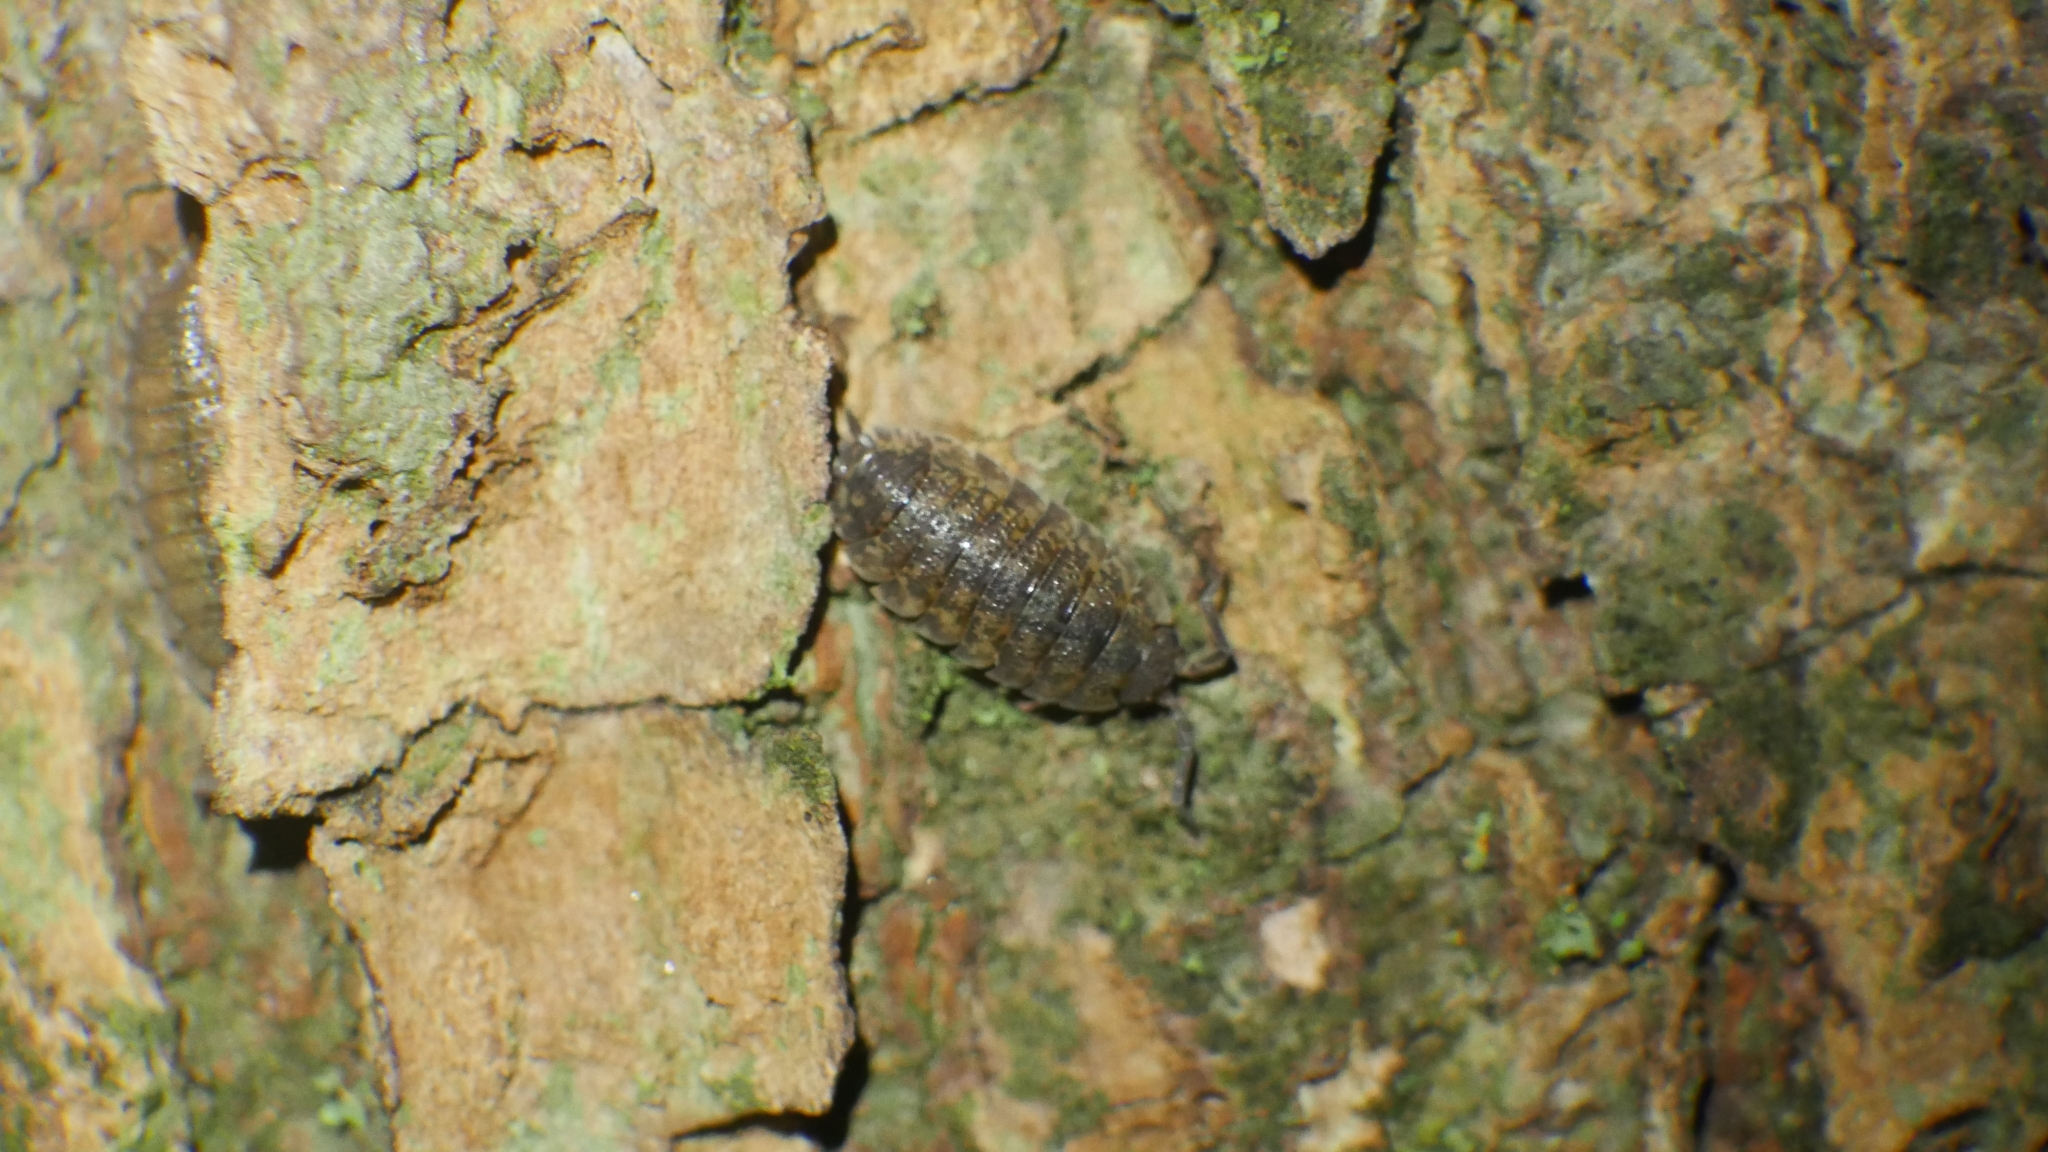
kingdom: Animalia
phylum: Arthropoda
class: Malacostraca
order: Isopoda
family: Porcellionidae
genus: Porcellio
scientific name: Porcellio scaber
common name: Common rough woodlouse
